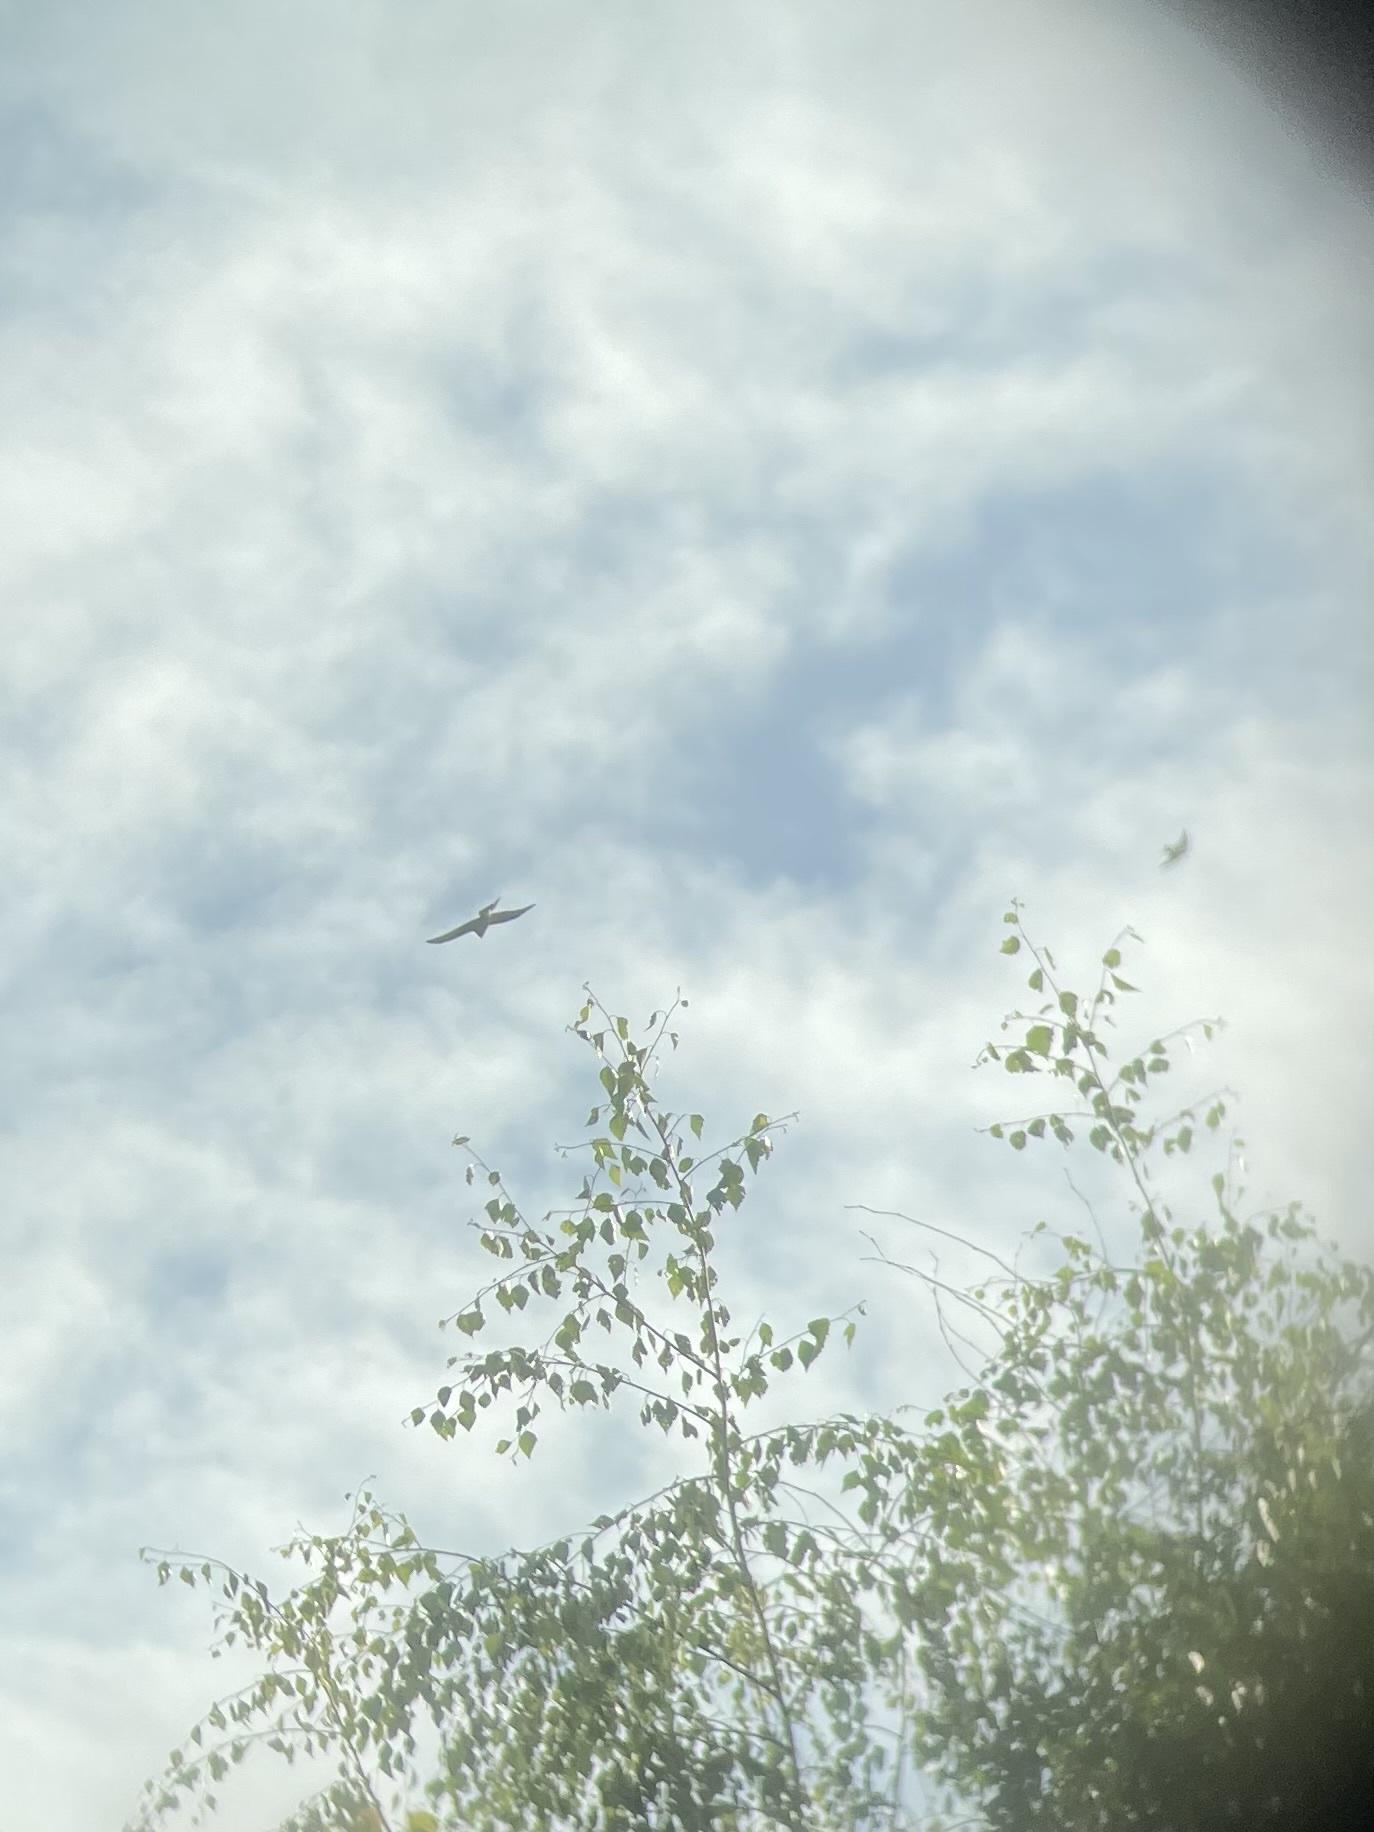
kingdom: Animalia
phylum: Chordata
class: Aves
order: Accipitriformes
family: Accipitridae
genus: Accipiter
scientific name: Accipiter nisus
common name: Eurasian sparrowhawk
